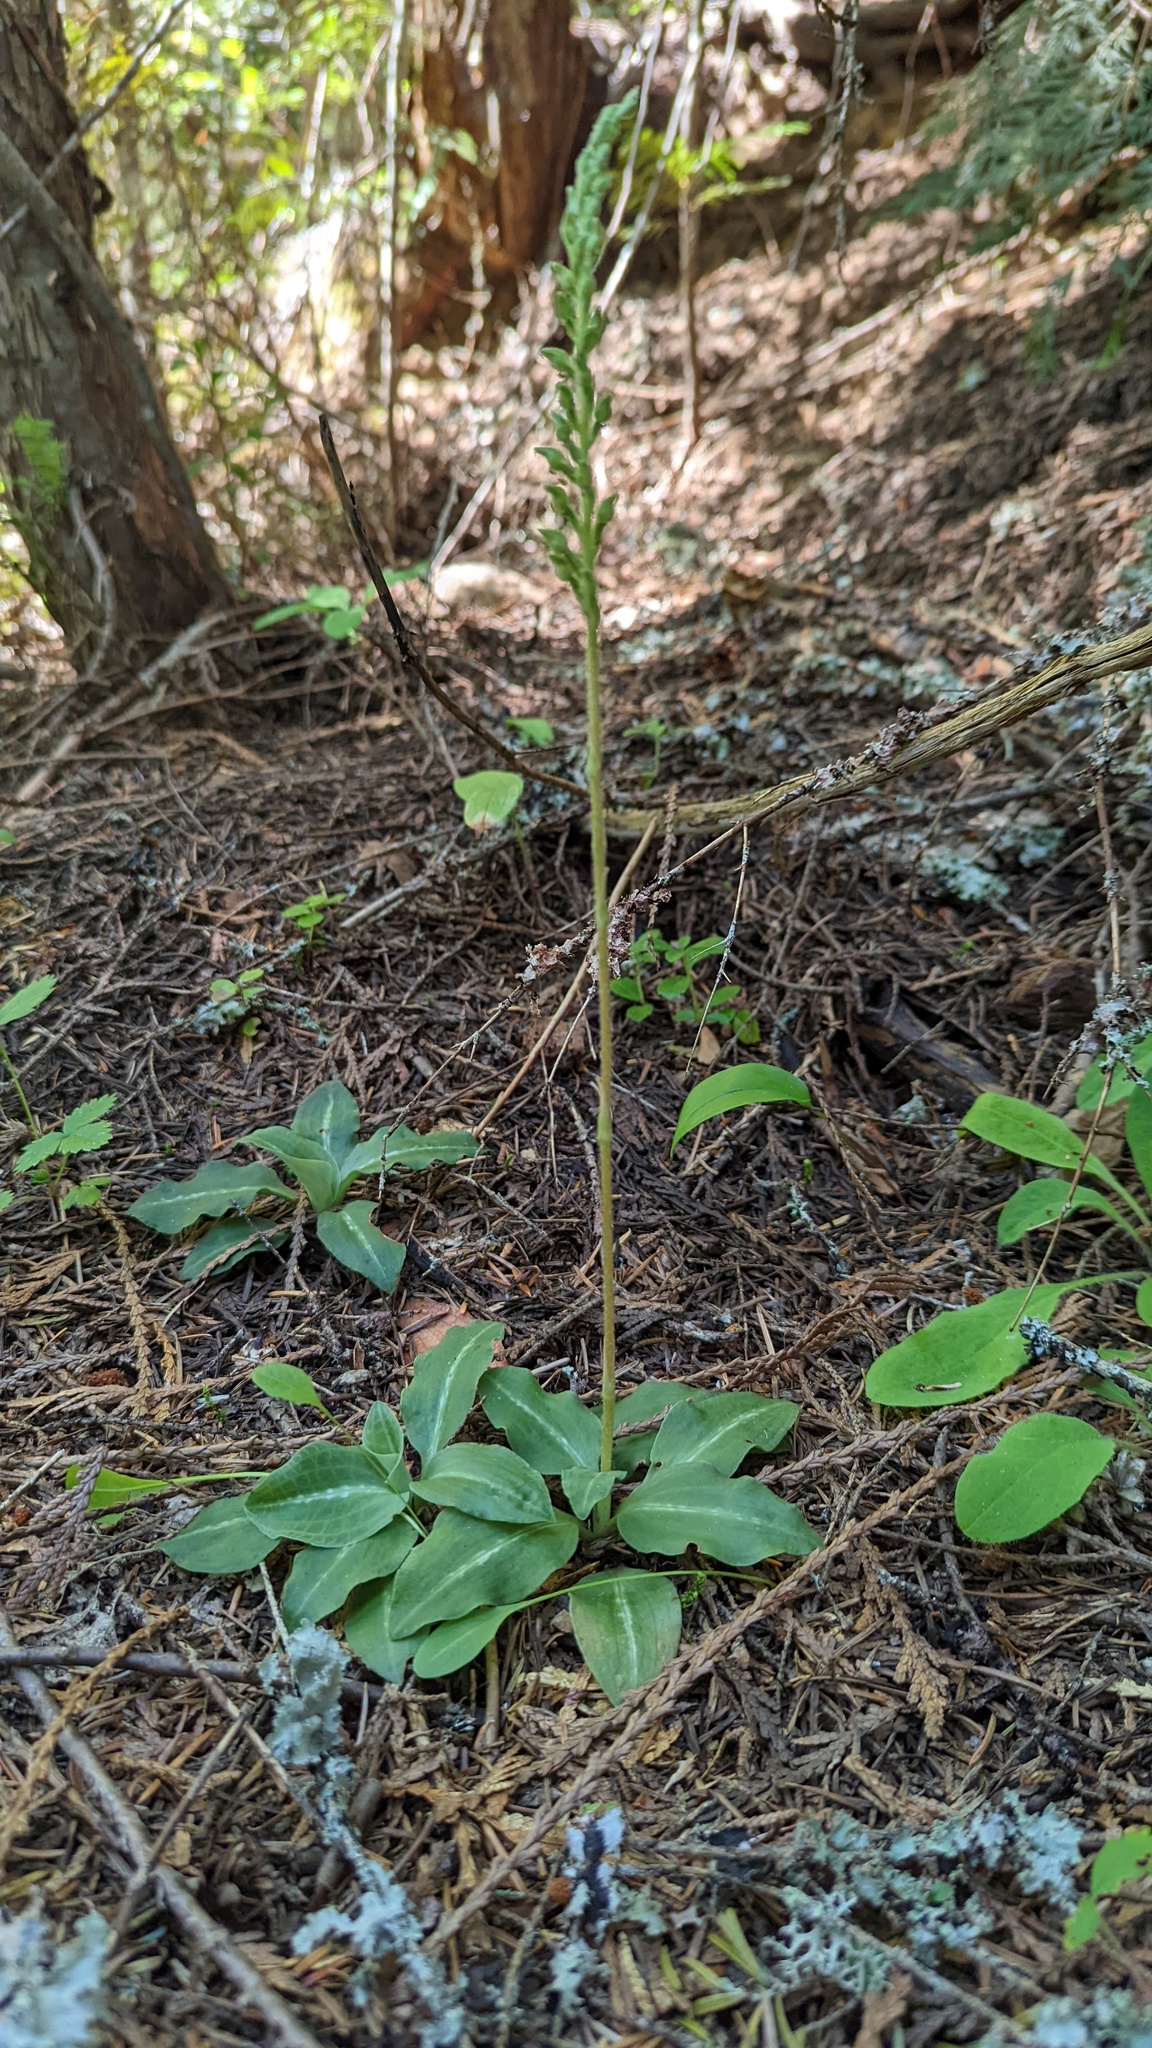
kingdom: Plantae
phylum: Tracheophyta
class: Liliopsida
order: Asparagales
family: Orchidaceae
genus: Goodyera
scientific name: Goodyera oblongifolia
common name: Giant rattlesnake-plantain
